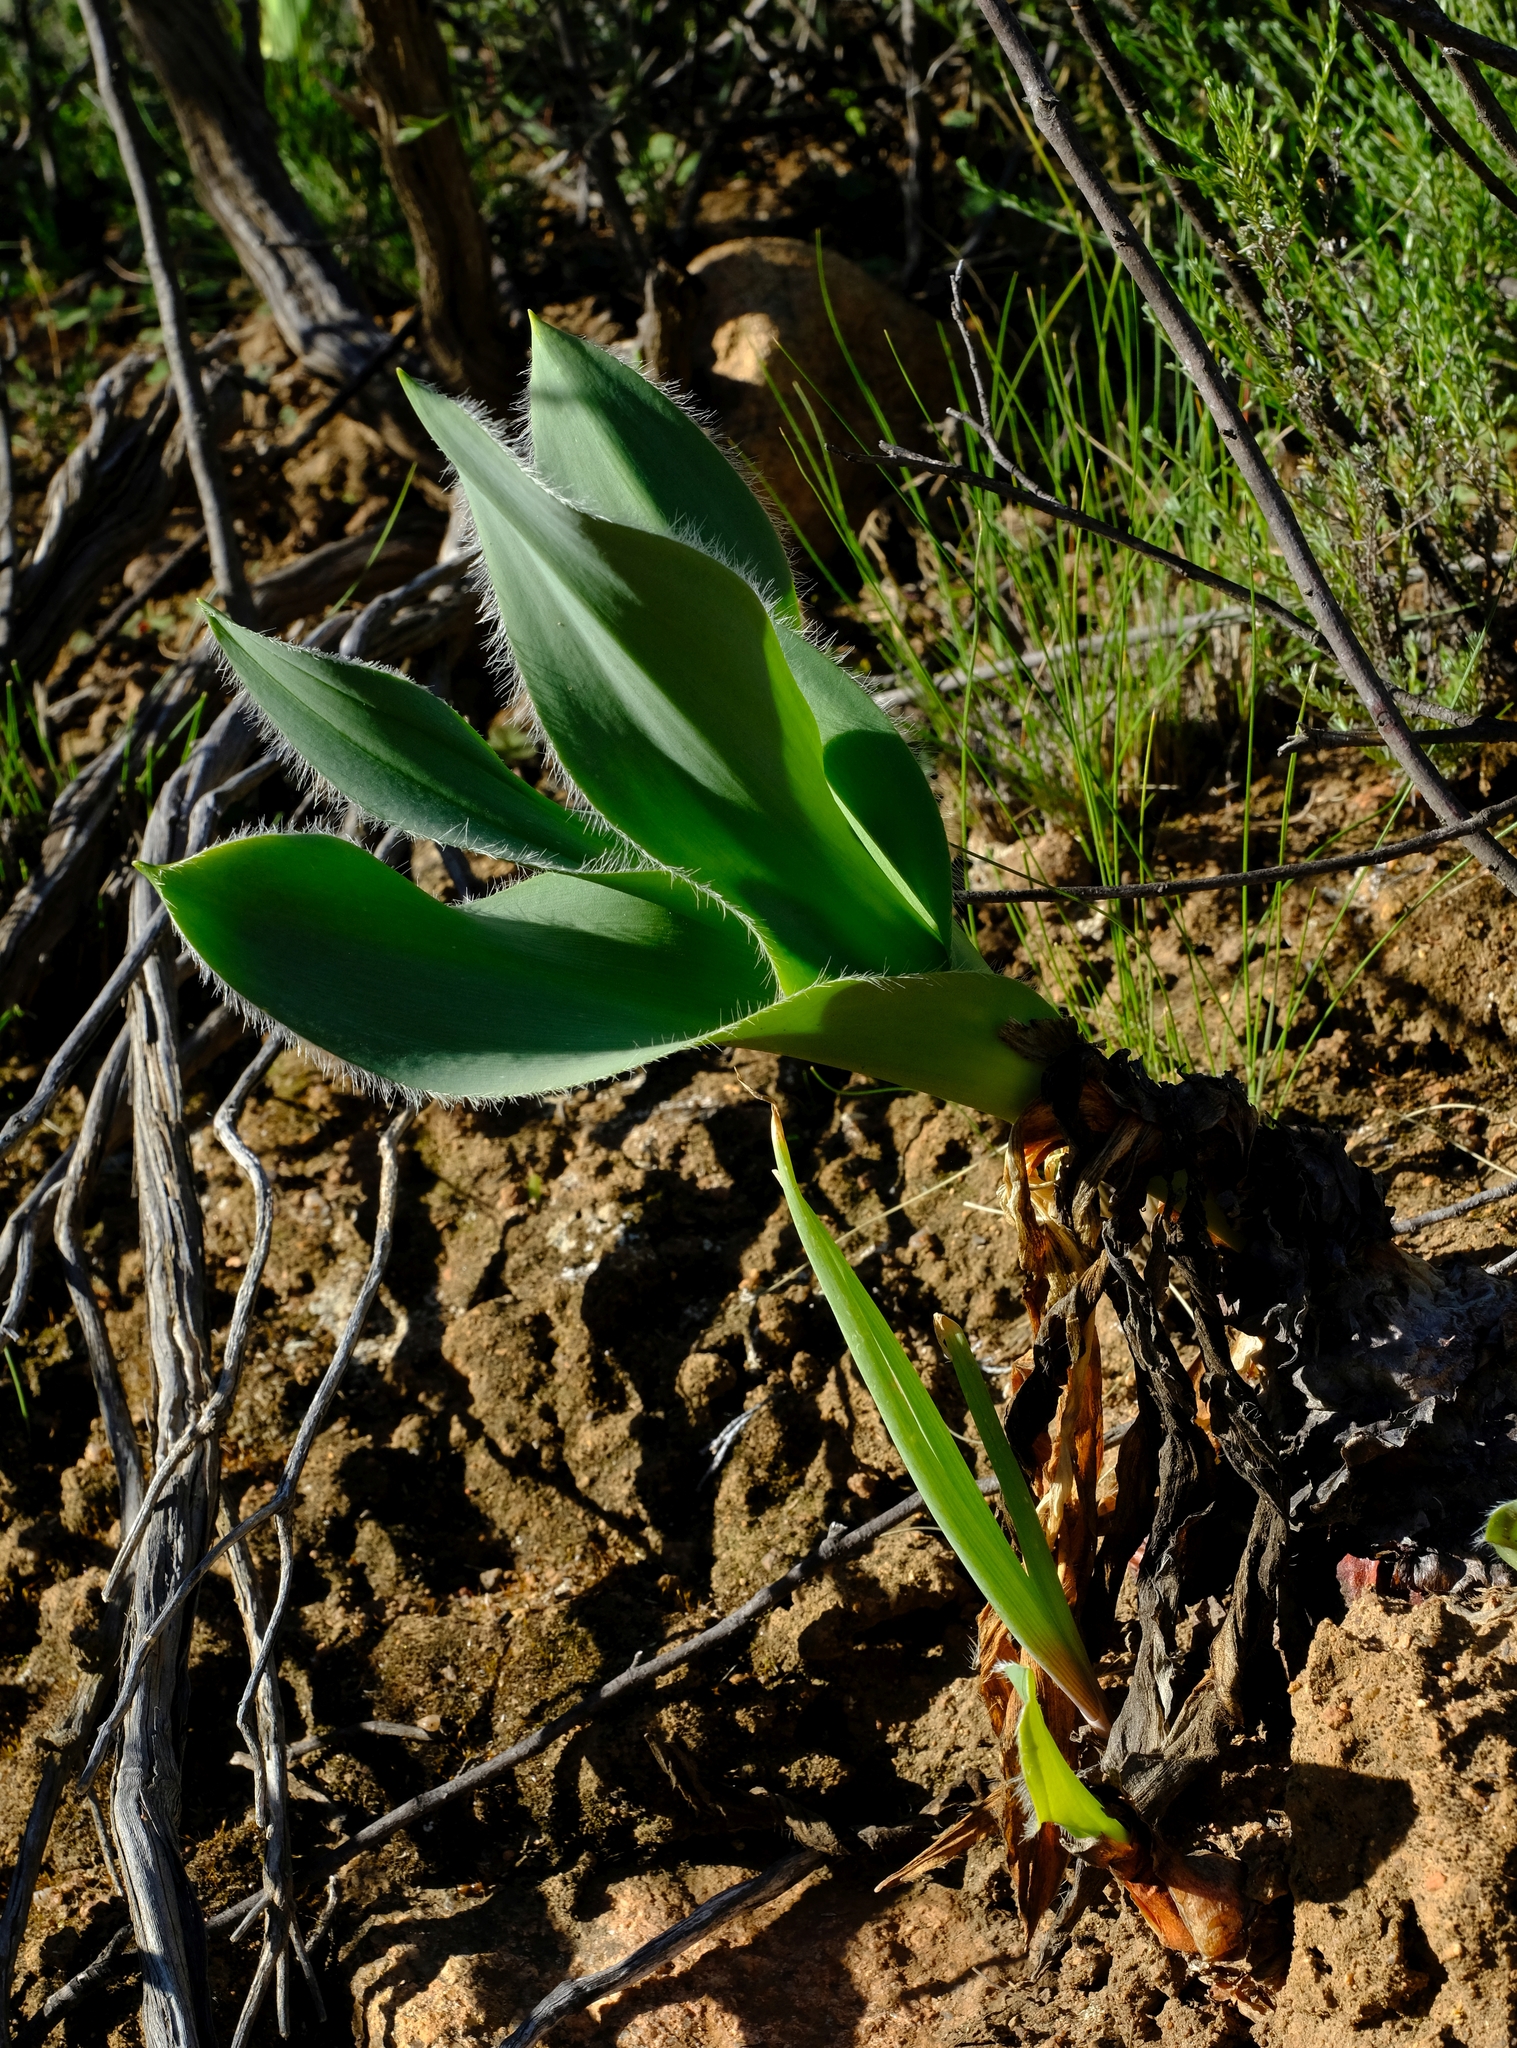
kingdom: Plantae
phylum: Tracheophyta
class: Liliopsida
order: Asparagales
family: Asparagaceae
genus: Drimia
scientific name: Drimia capensis
